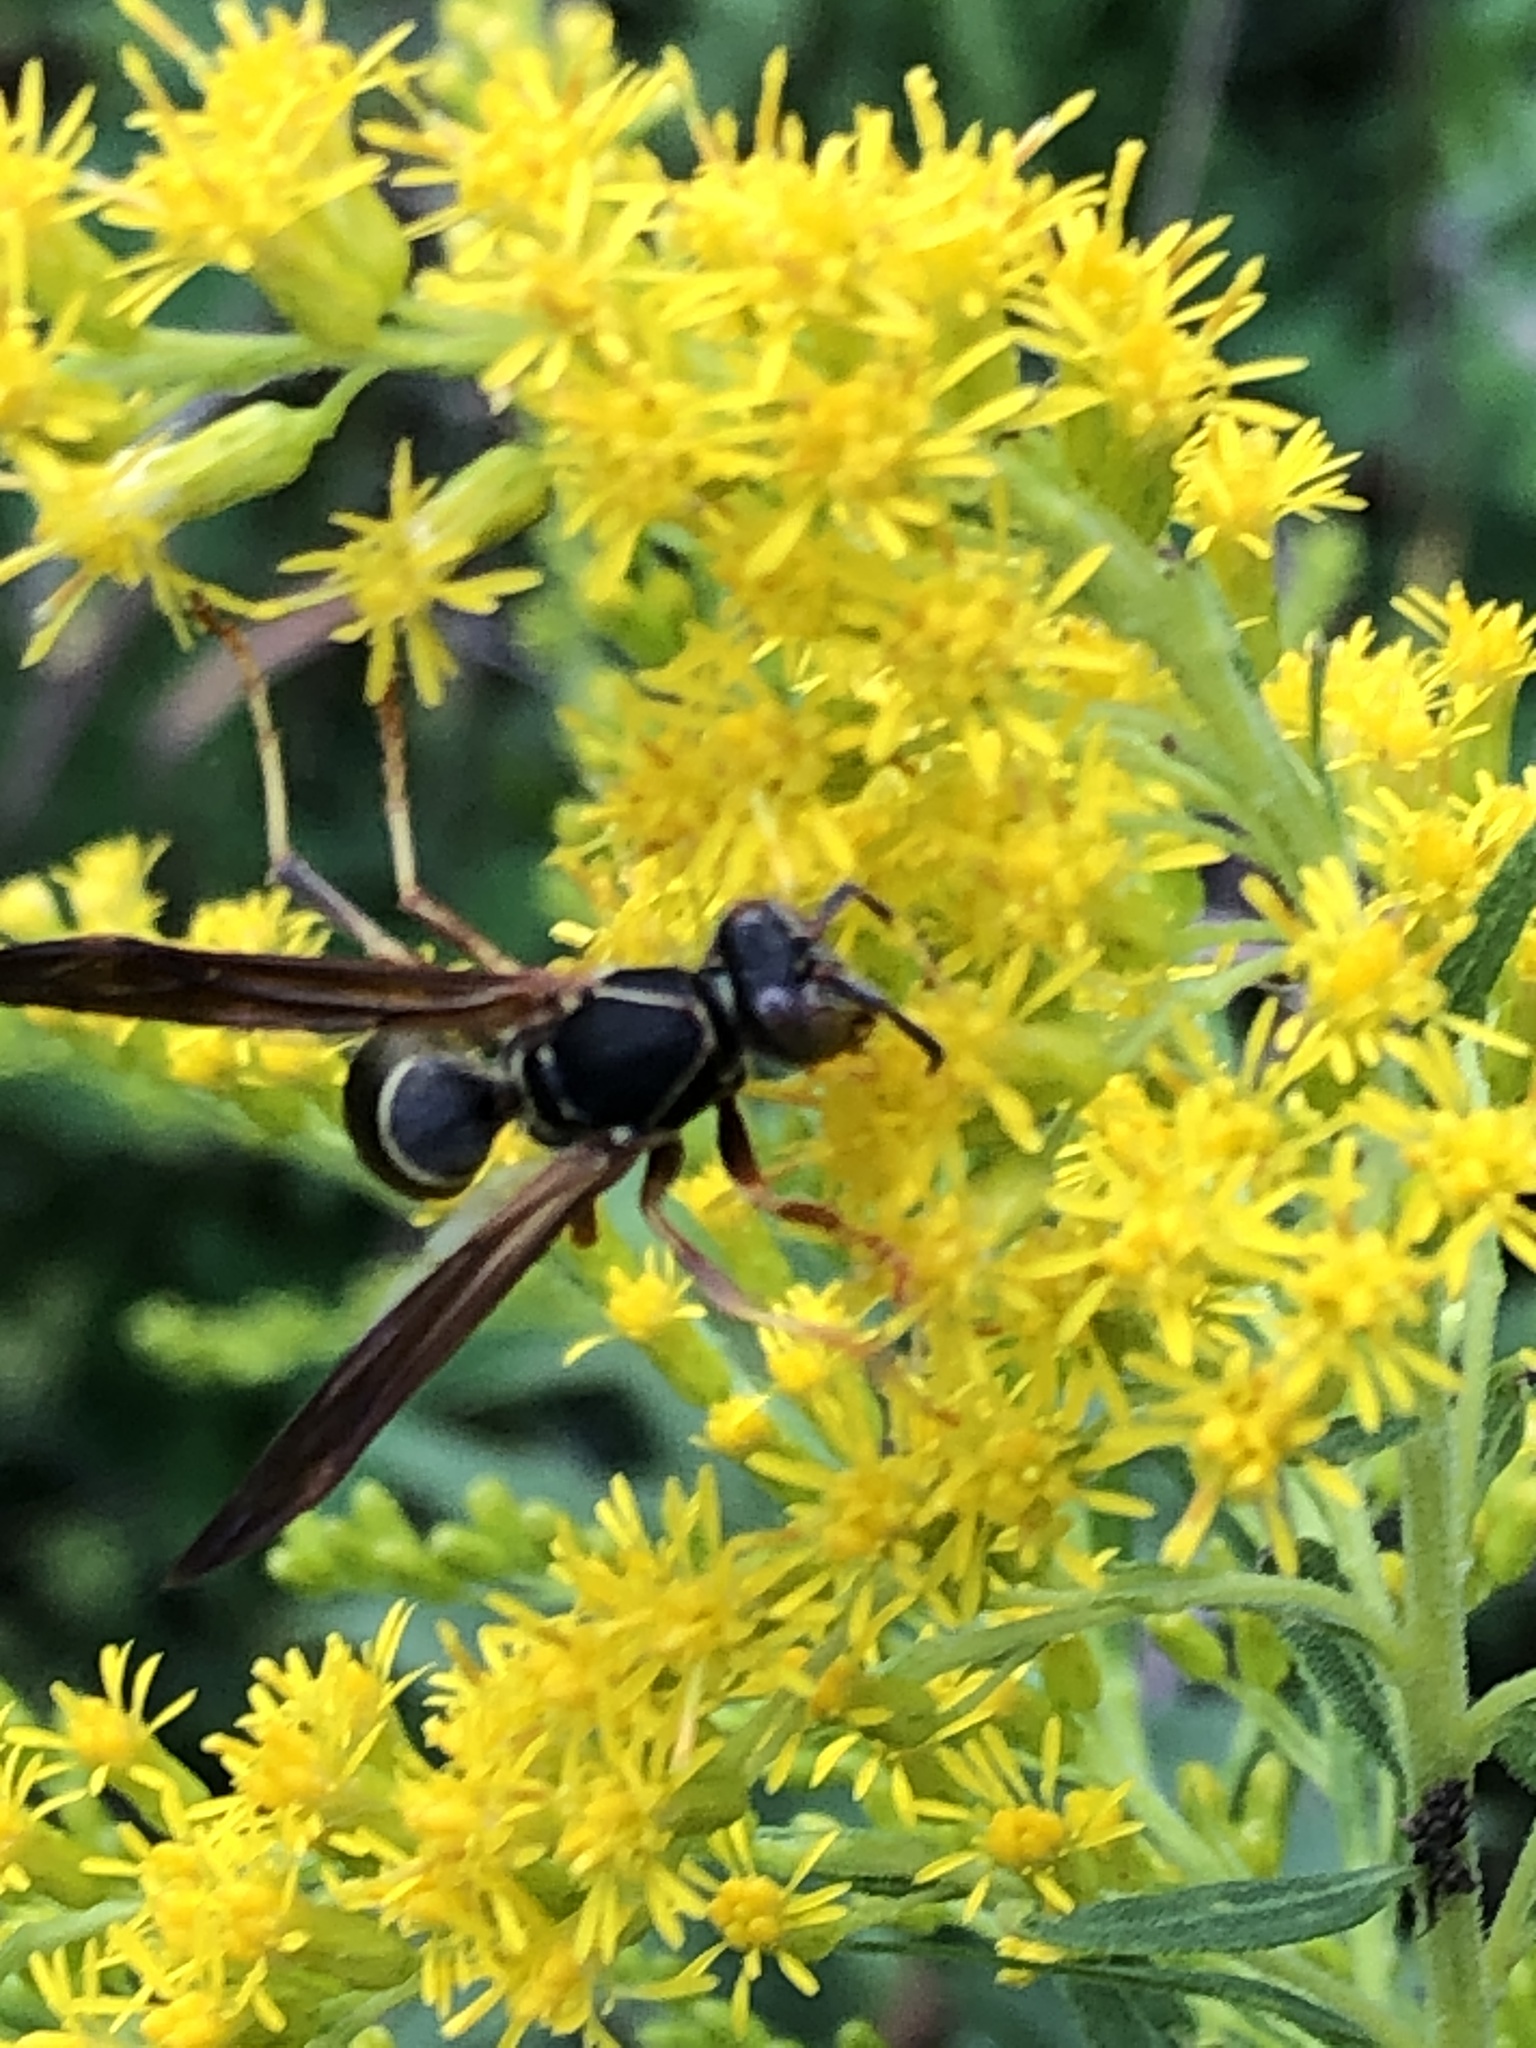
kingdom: Animalia
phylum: Arthropoda
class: Insecta
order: Hymenoptera
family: Eumenidae
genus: Polistes
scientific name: Polistes fuscatus
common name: Dark paper wasp
